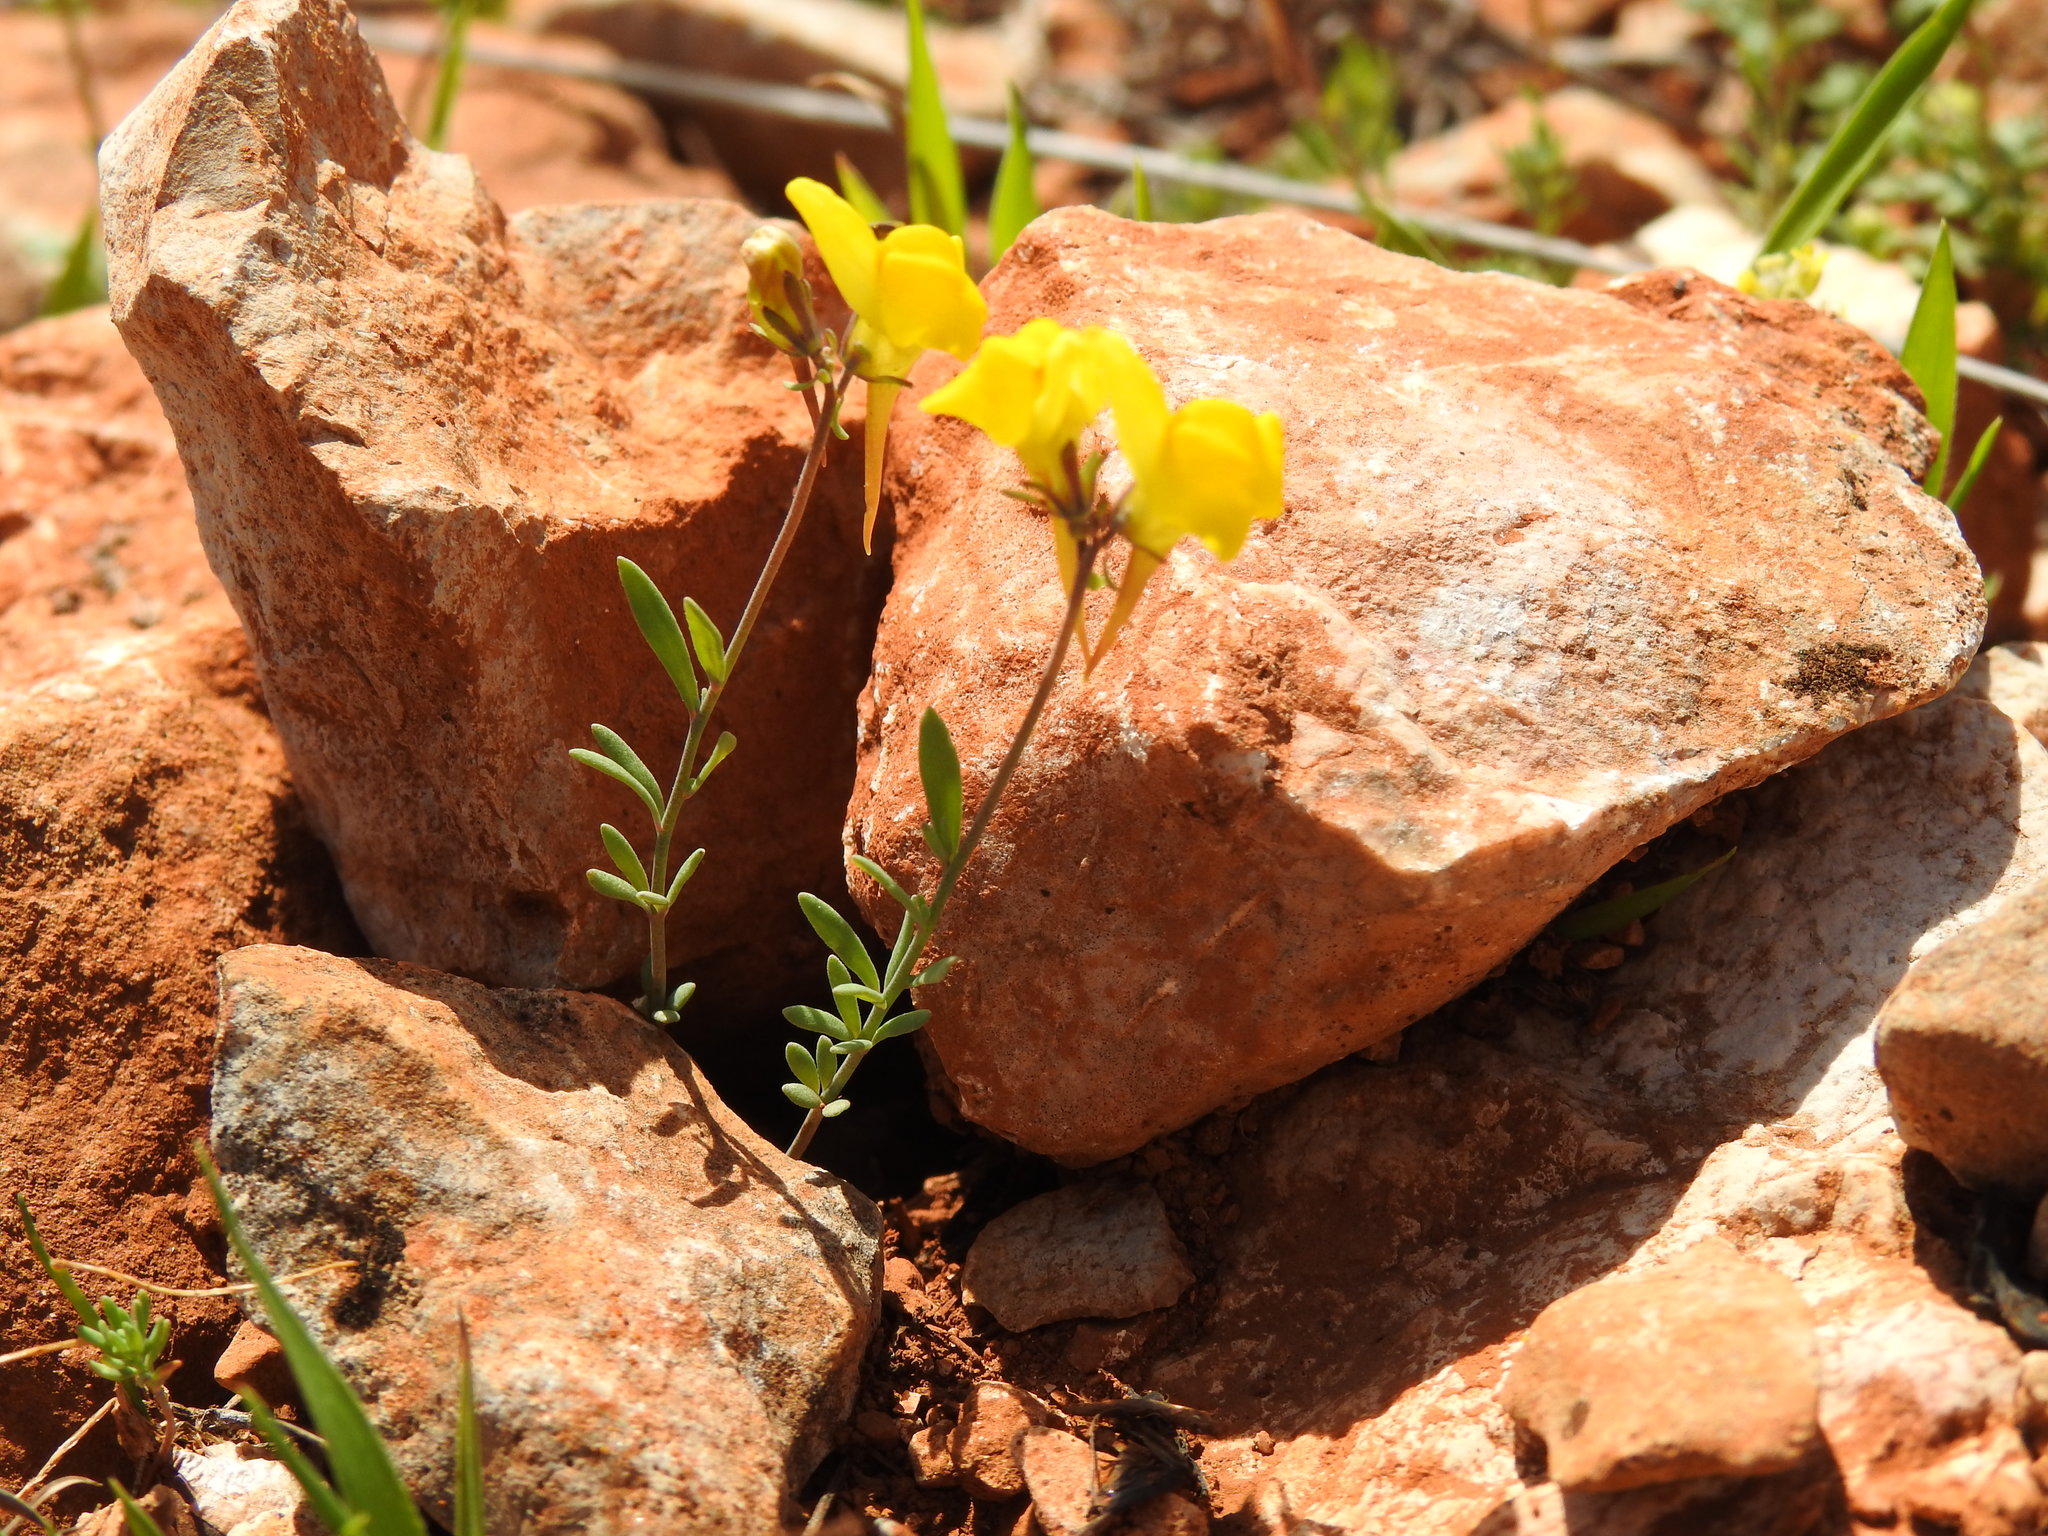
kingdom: Plantae
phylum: Tracheophyta
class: Magnoliopsida
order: Lamiales
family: Plantaginaceae
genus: Linaria
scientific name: Linaria oblongifolia
